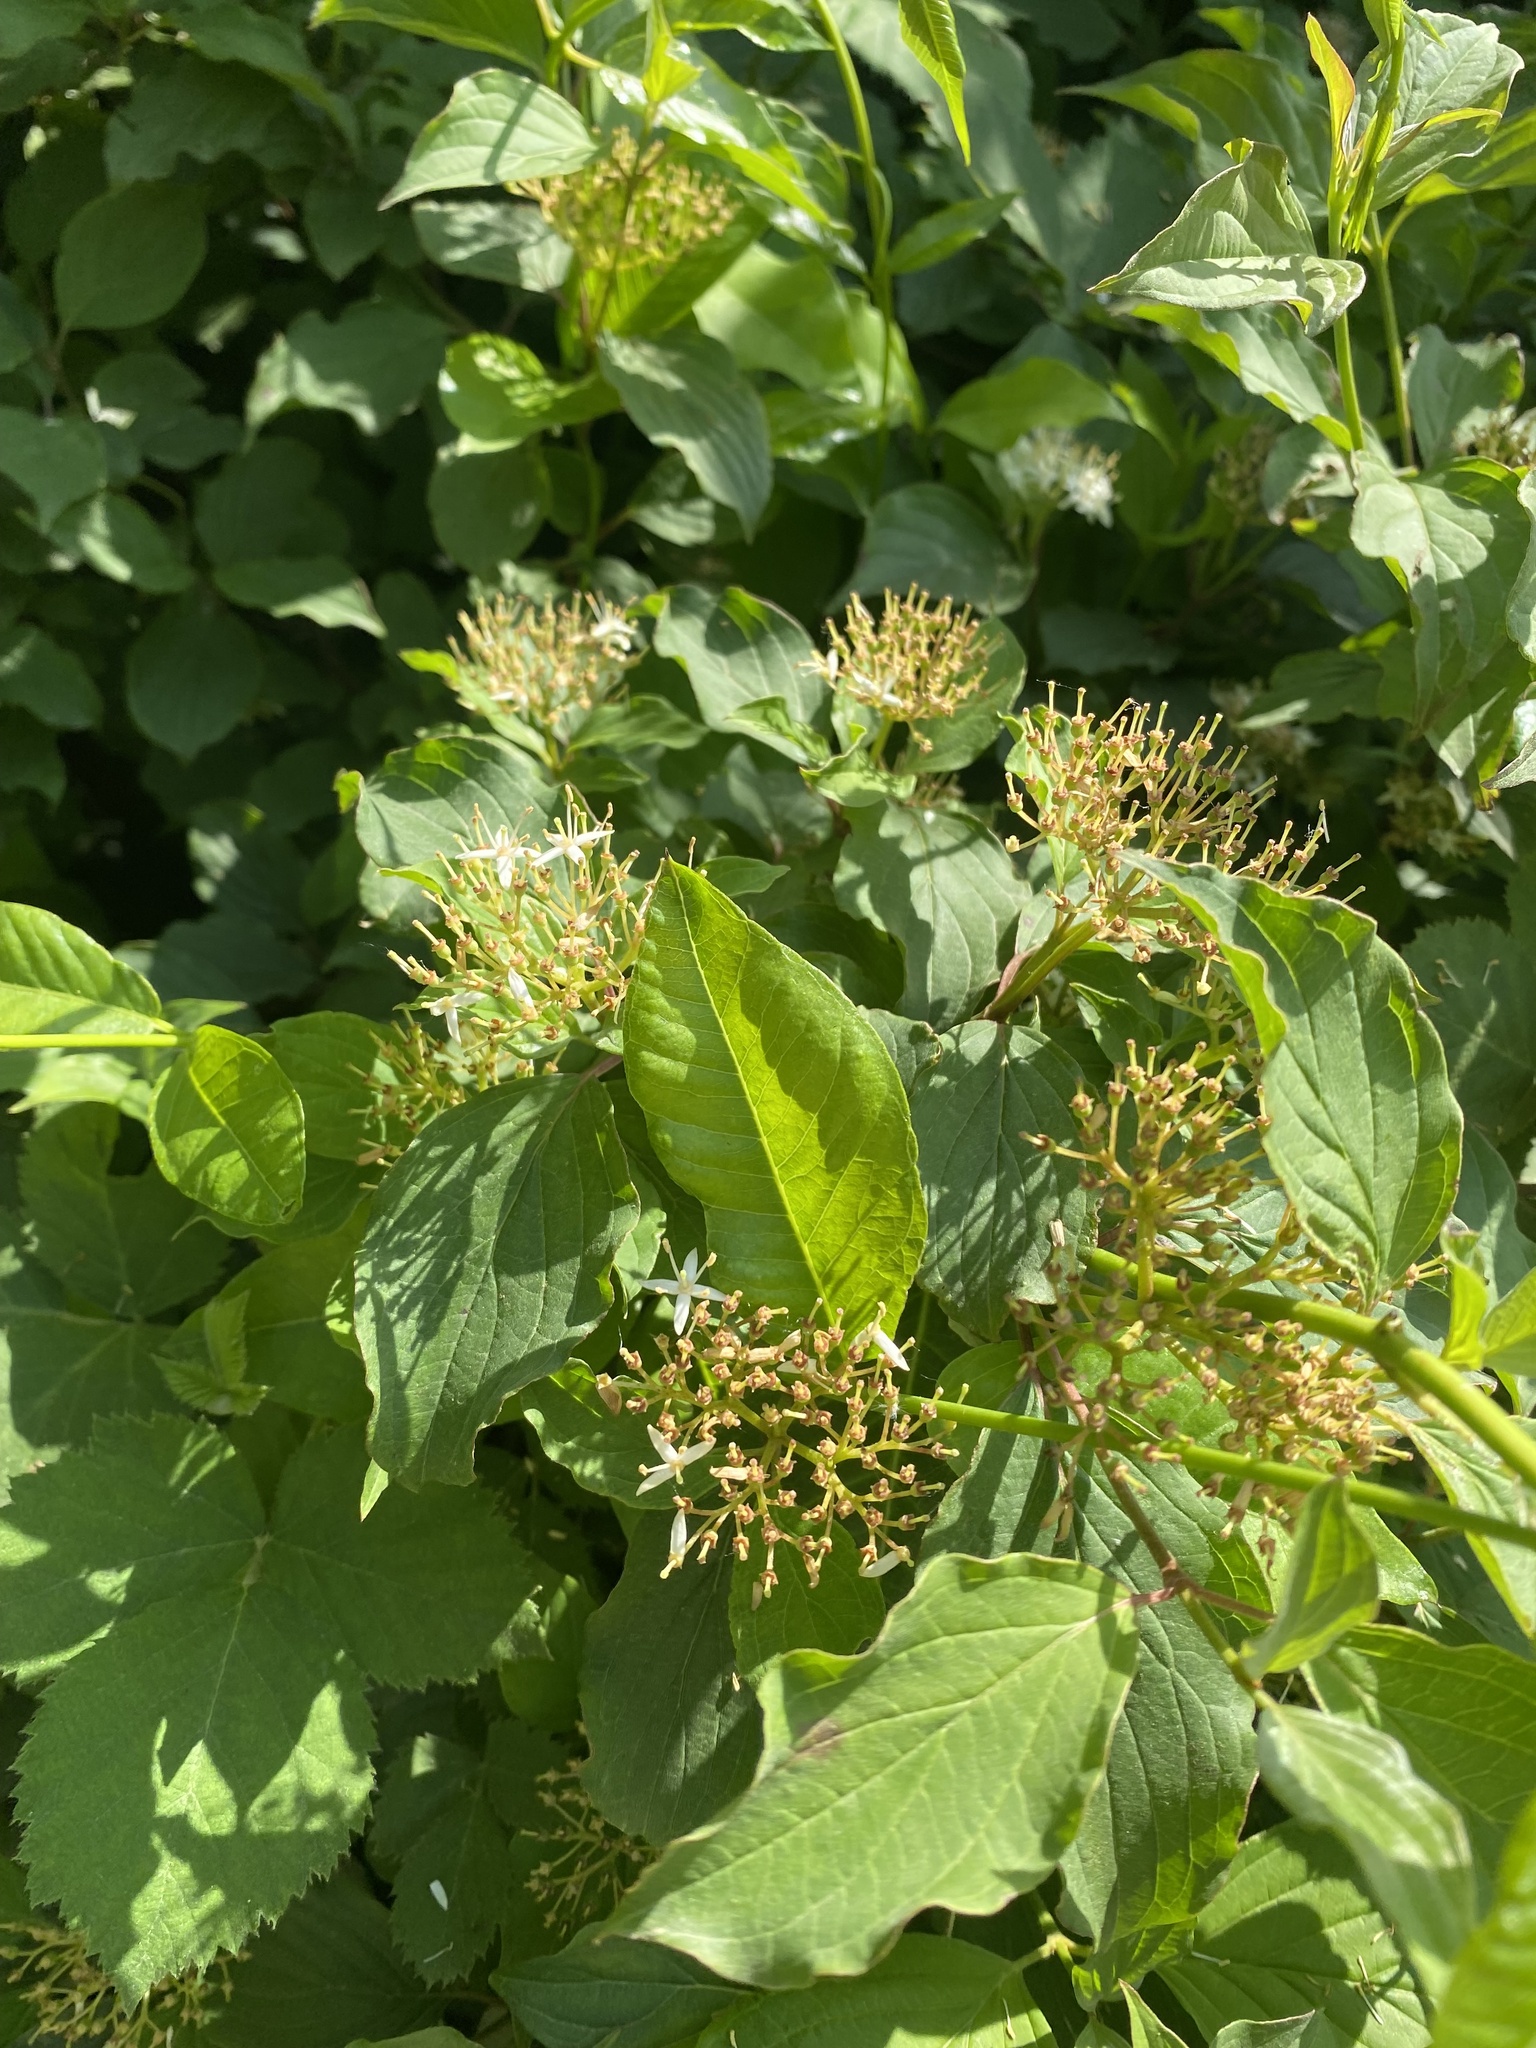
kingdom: Plantae
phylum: Tracheophyta
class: Magnoliopsida
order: Cornales
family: Cornaceae
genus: Cornus
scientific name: Cornus sanguinea
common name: Dogwood
